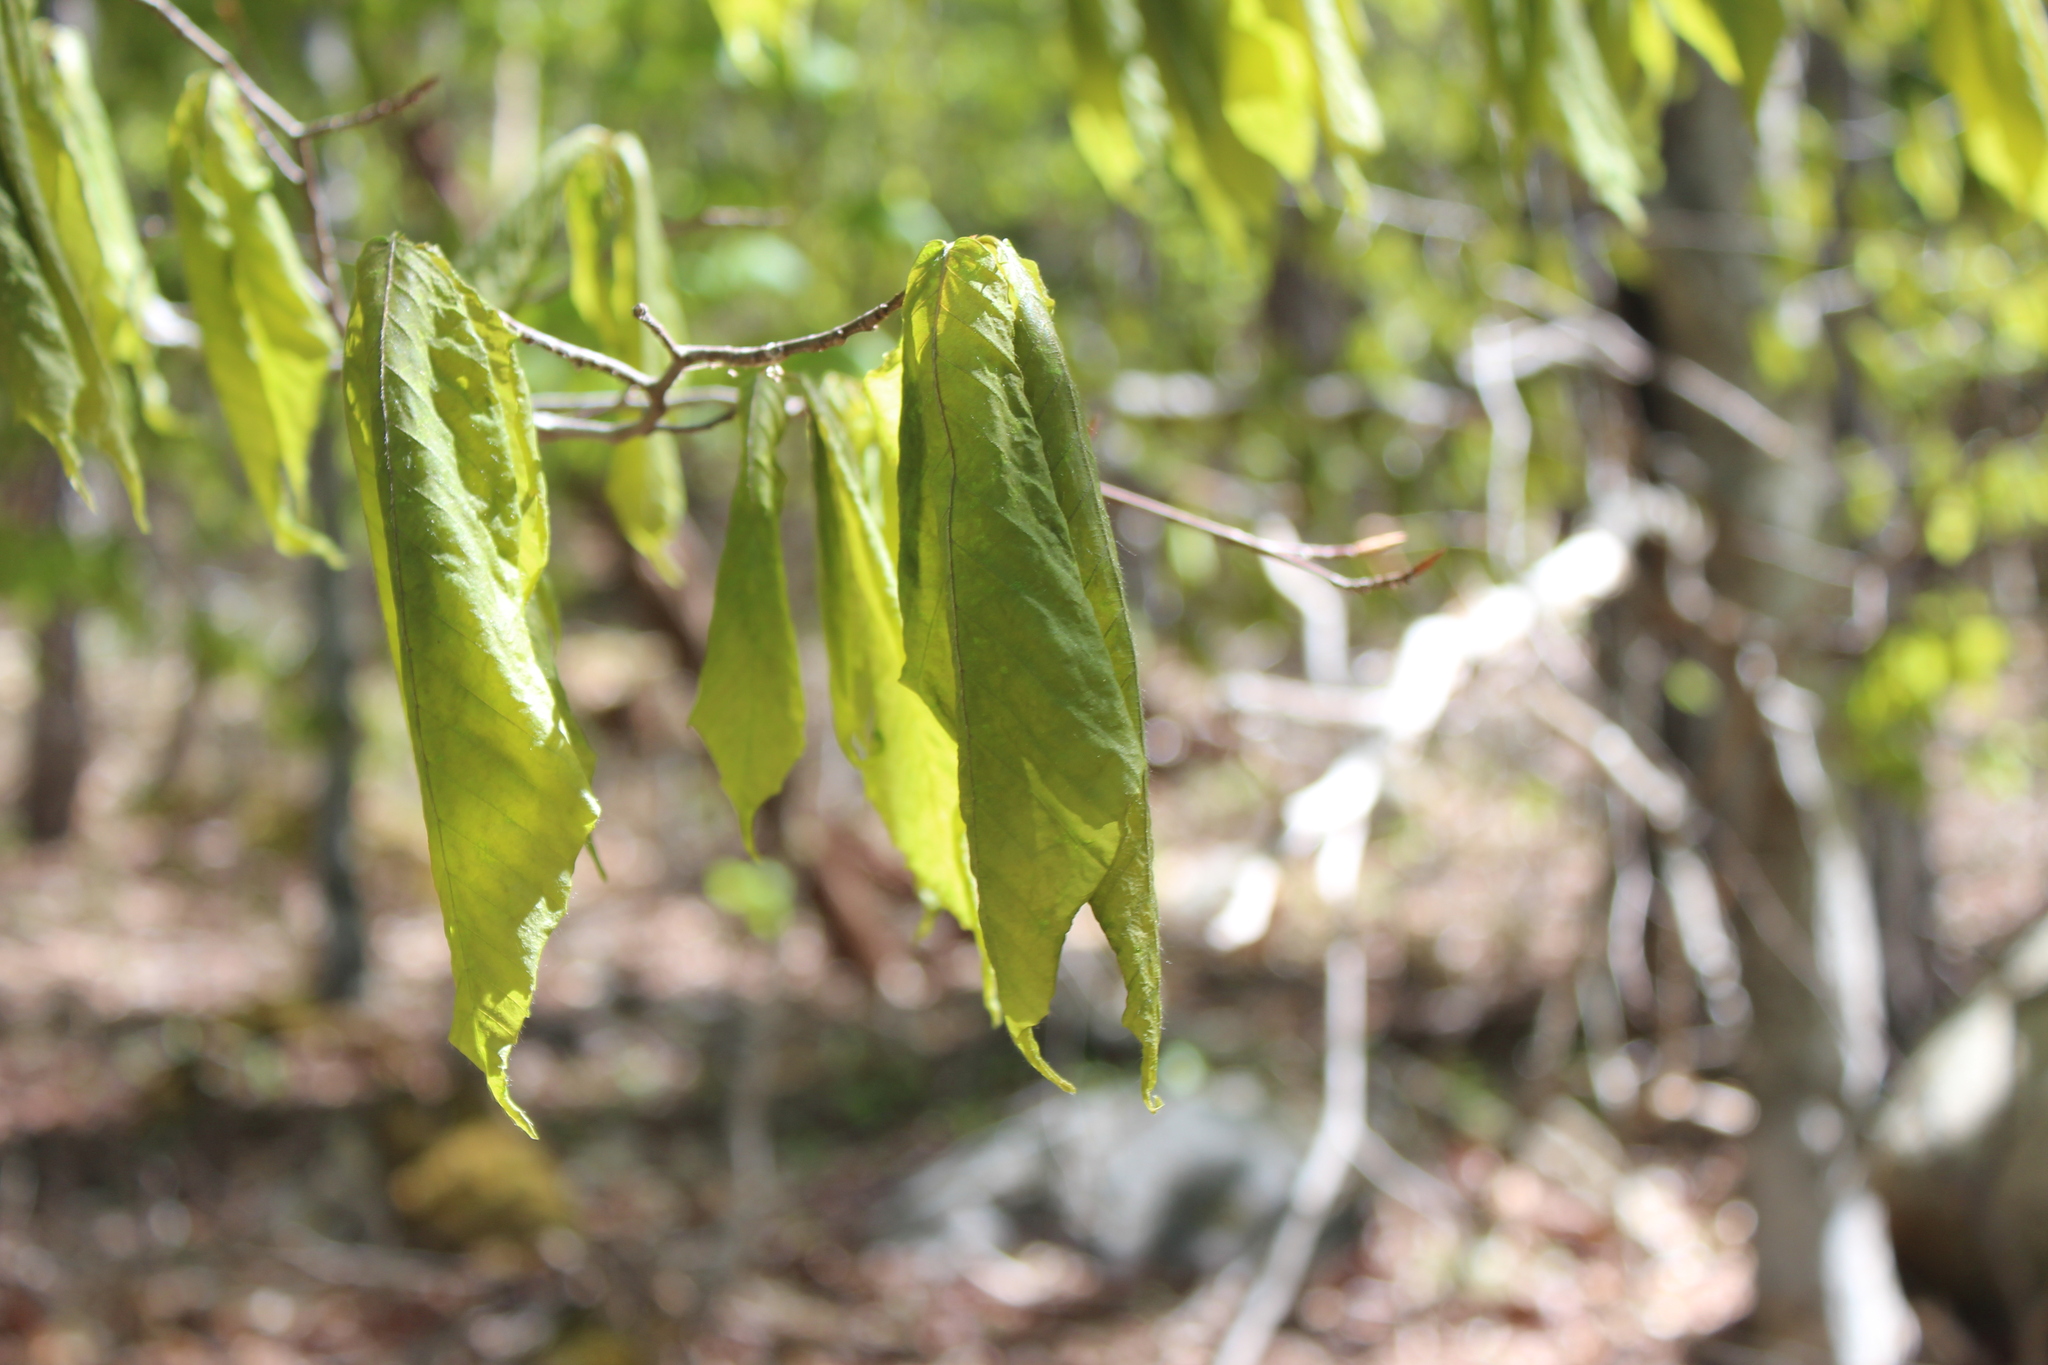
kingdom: Plantae
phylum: Tracheophyta
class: Magnoliopsida
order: Fagales
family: Fagaceae
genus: Fagus
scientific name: Fagus grandifolia
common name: American beech
